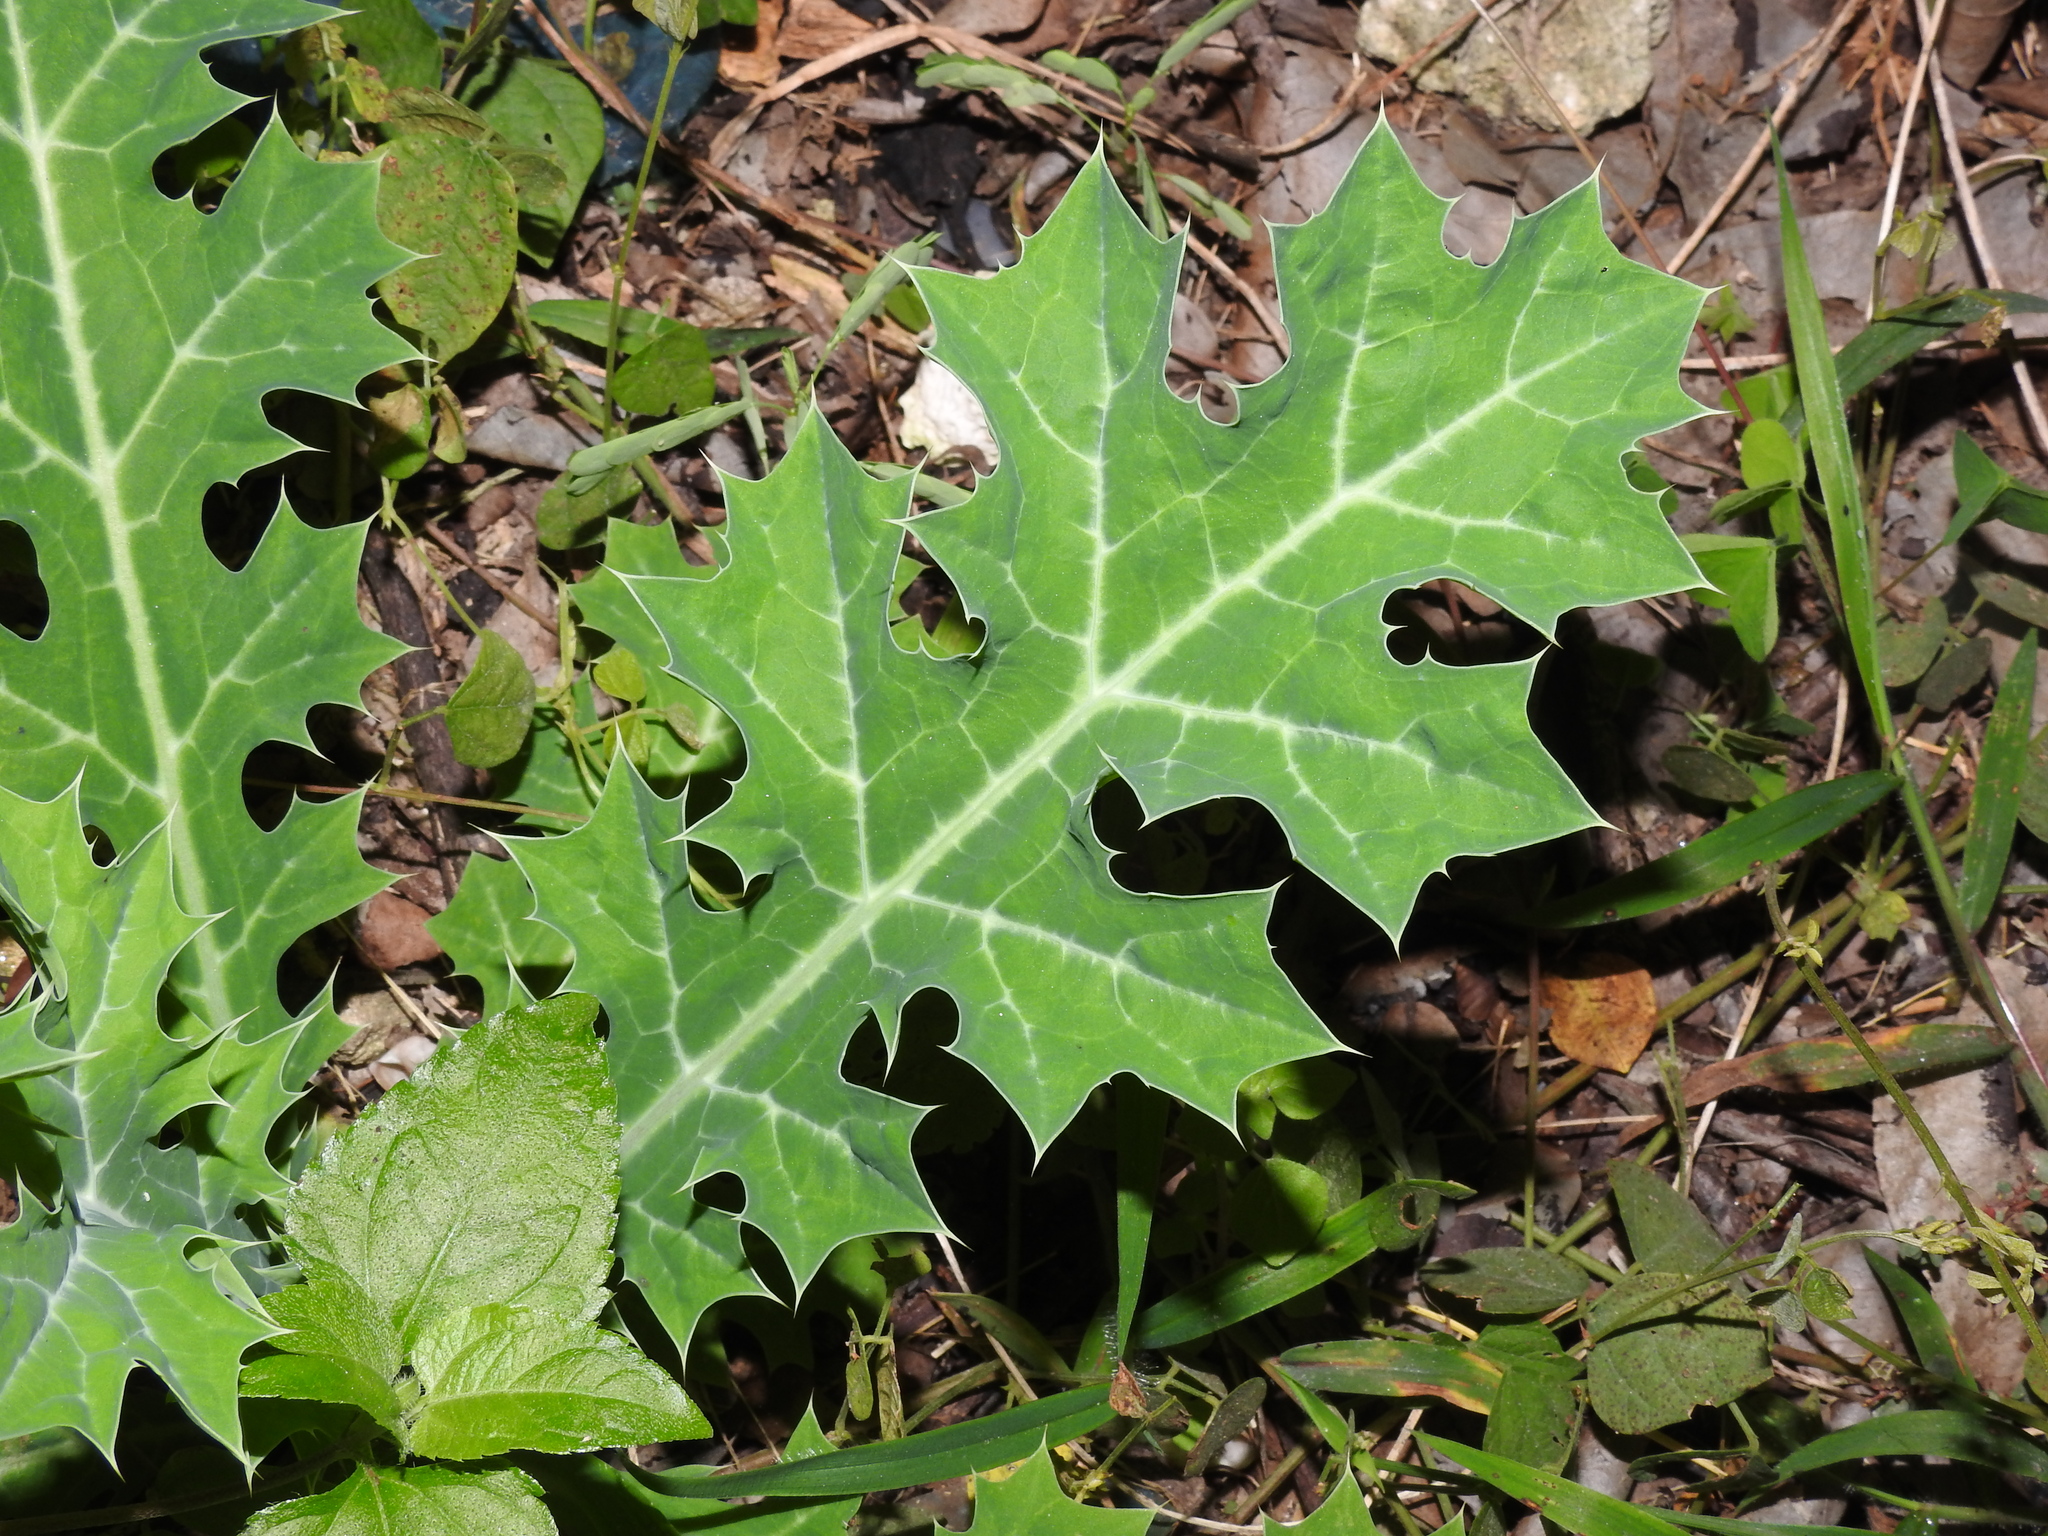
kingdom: Plantae
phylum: Tracheophyta
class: Magnoliopsida
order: Ranunculales
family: Papaveraceae
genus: Argemone
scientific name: Argemone mexicana
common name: Mexican poppy
